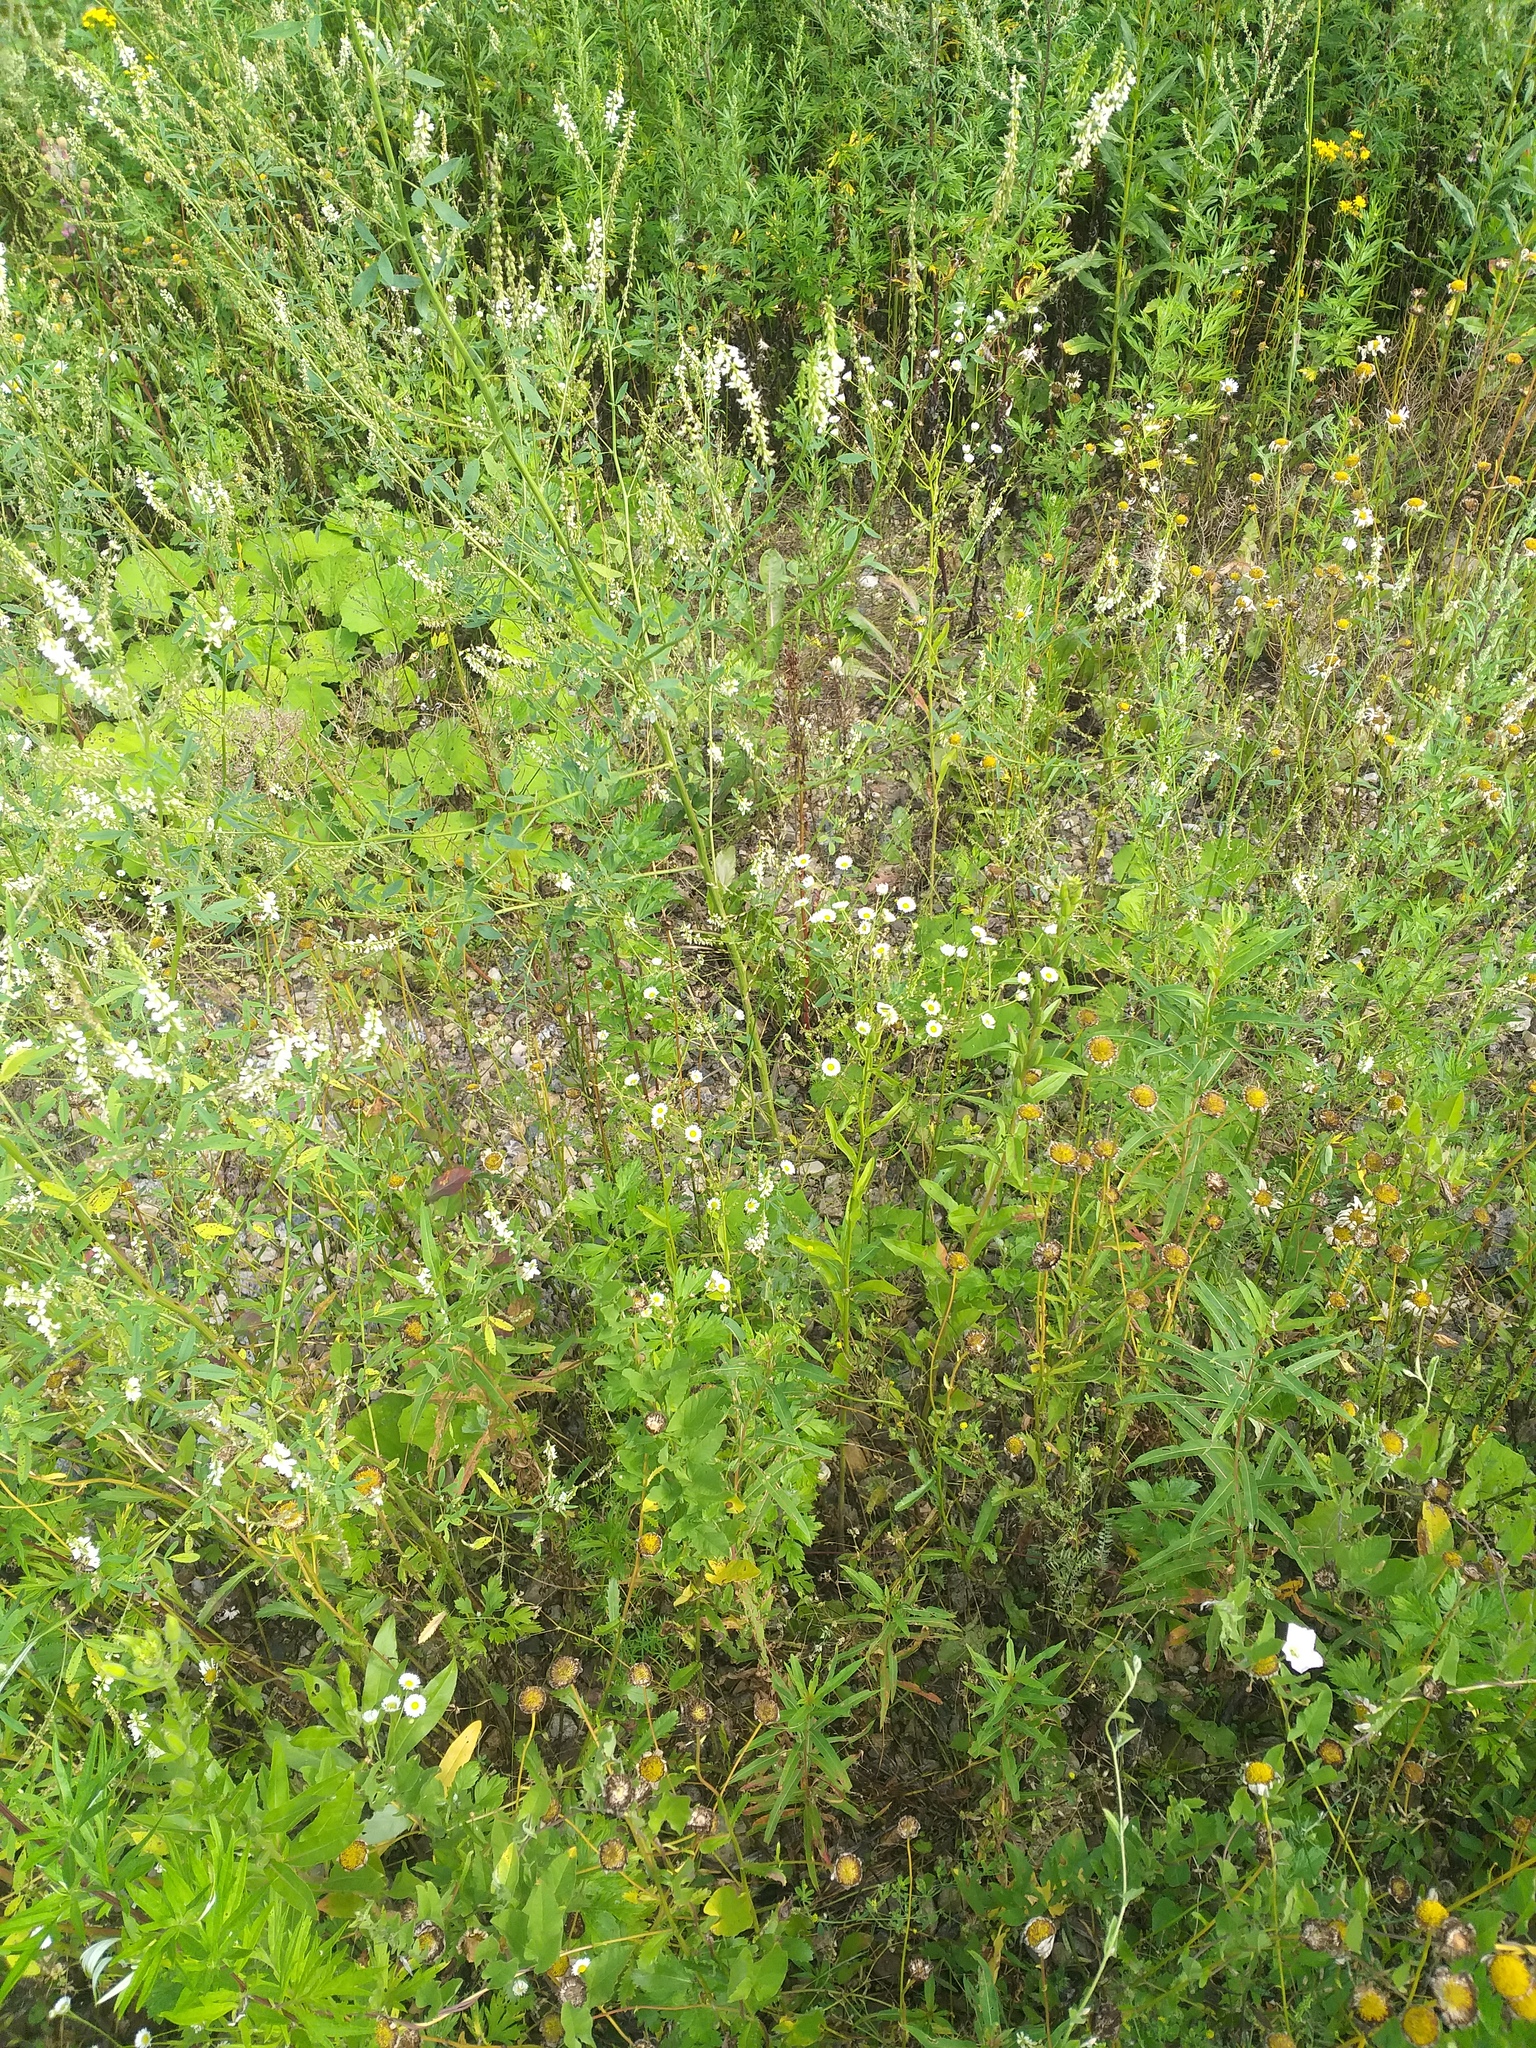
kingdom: Plantae
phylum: Tracheophyta
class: Magnoliopsida
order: Asterales
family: Asteraceae
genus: Erigeron
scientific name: Erigeron annuus
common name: Tall fleabane
